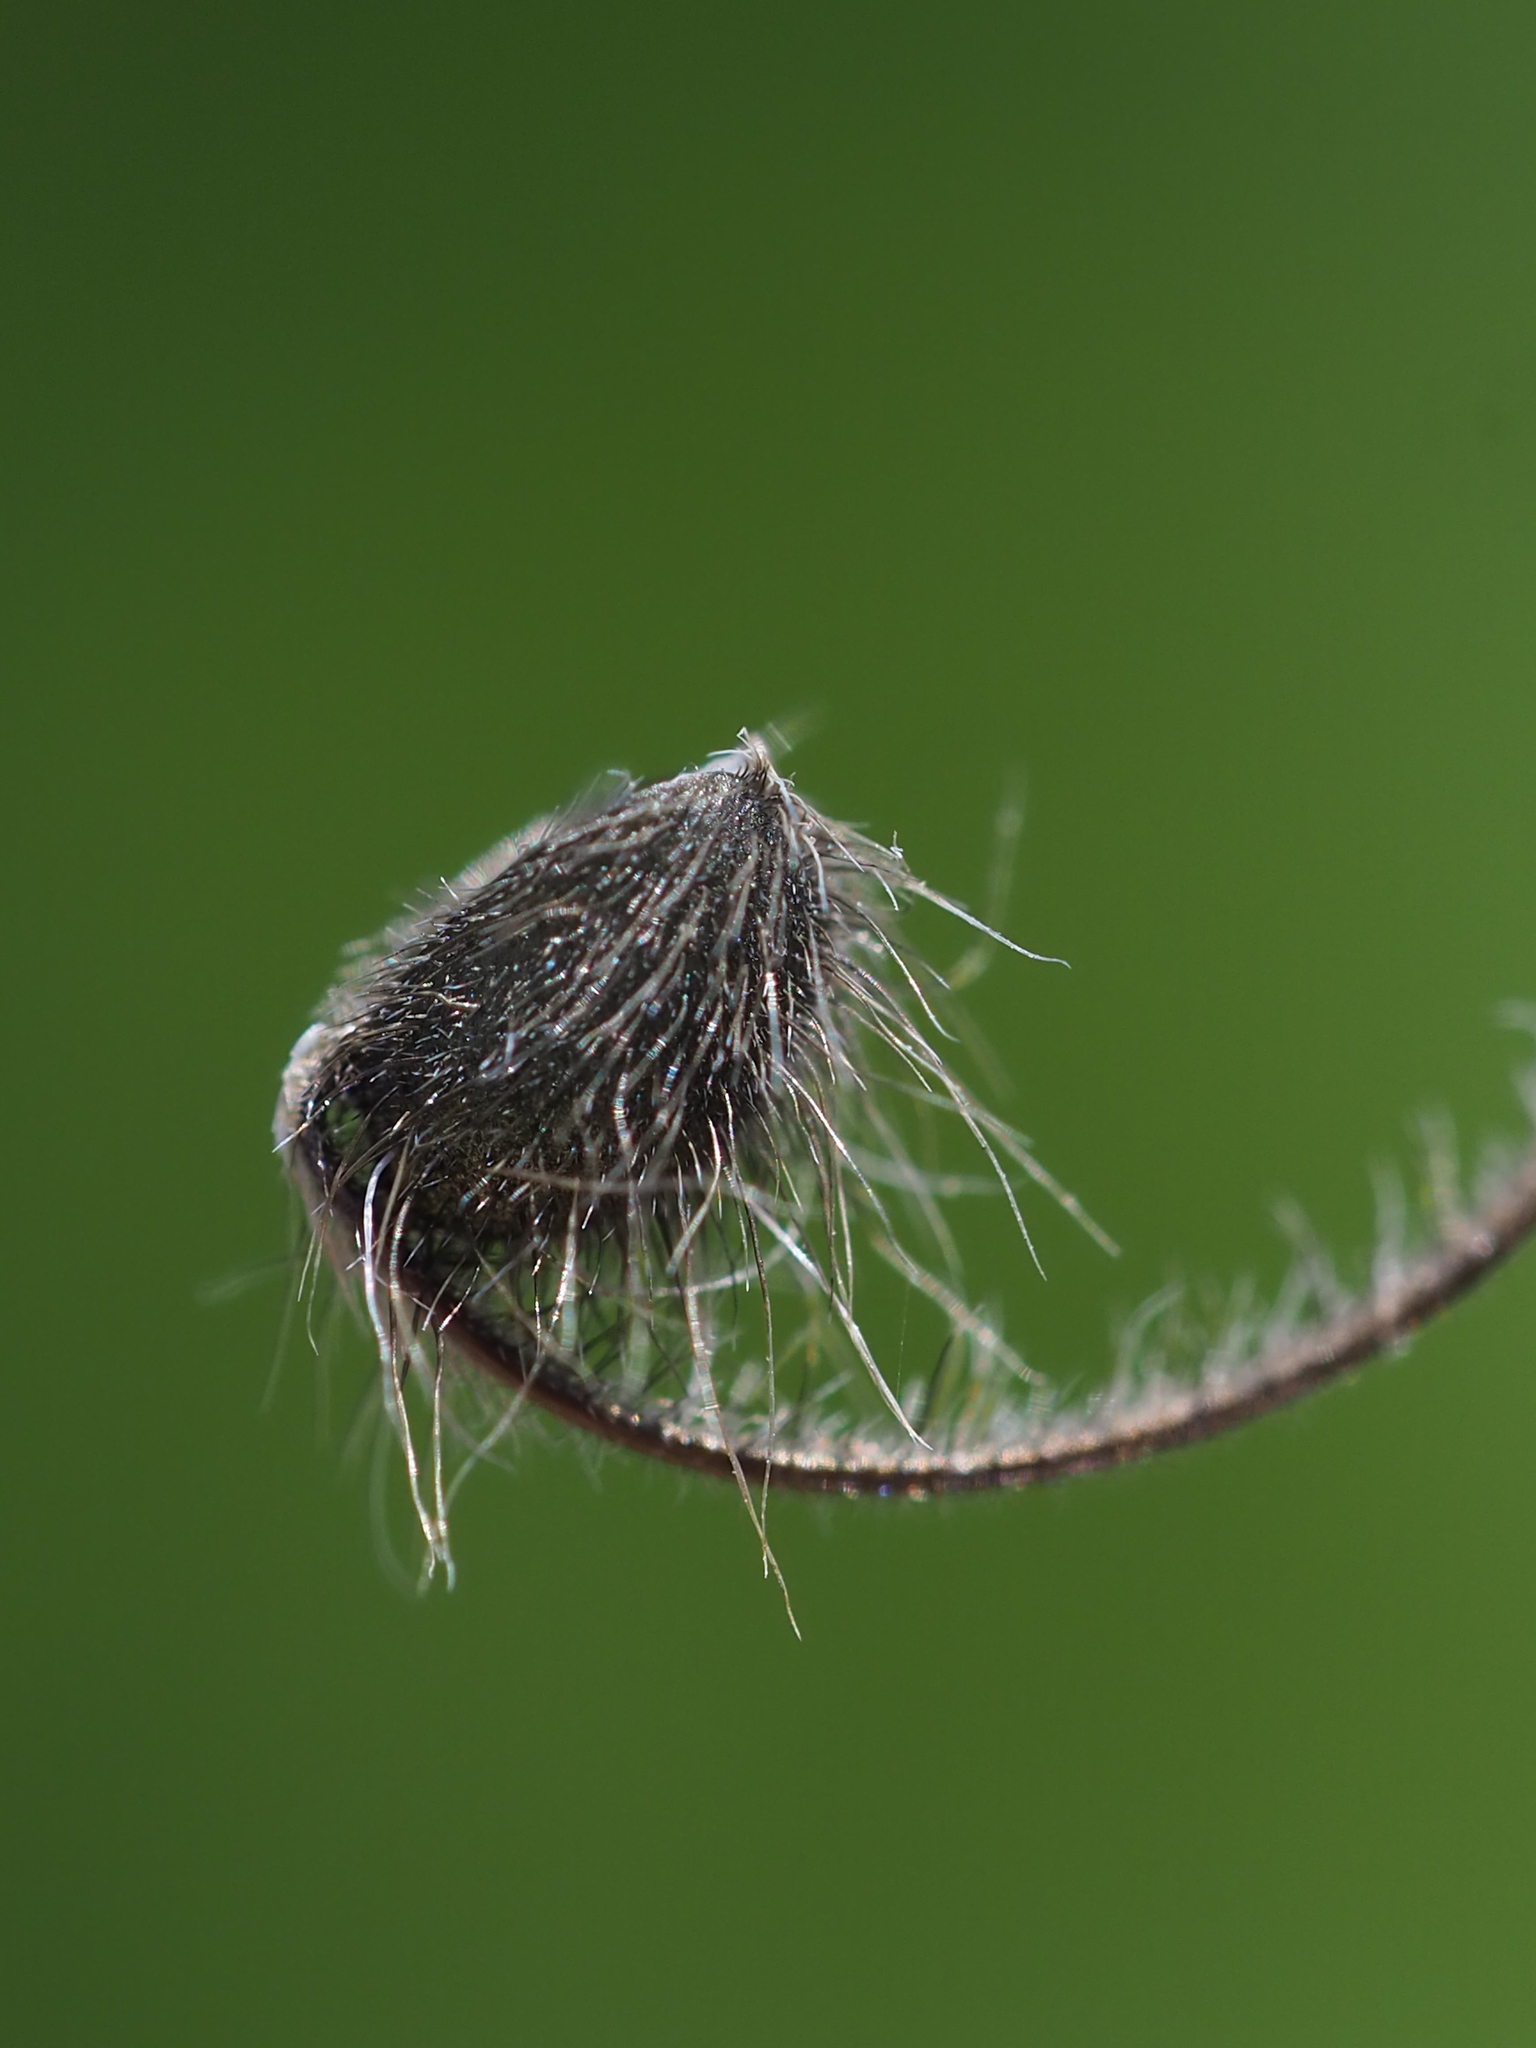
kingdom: Plantae
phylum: Tracheophyta
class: Magnoliopsida
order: Geraniales
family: Geraniaceae
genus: Geranium
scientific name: Geranium carolinianum
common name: Carolina crane's-bill
